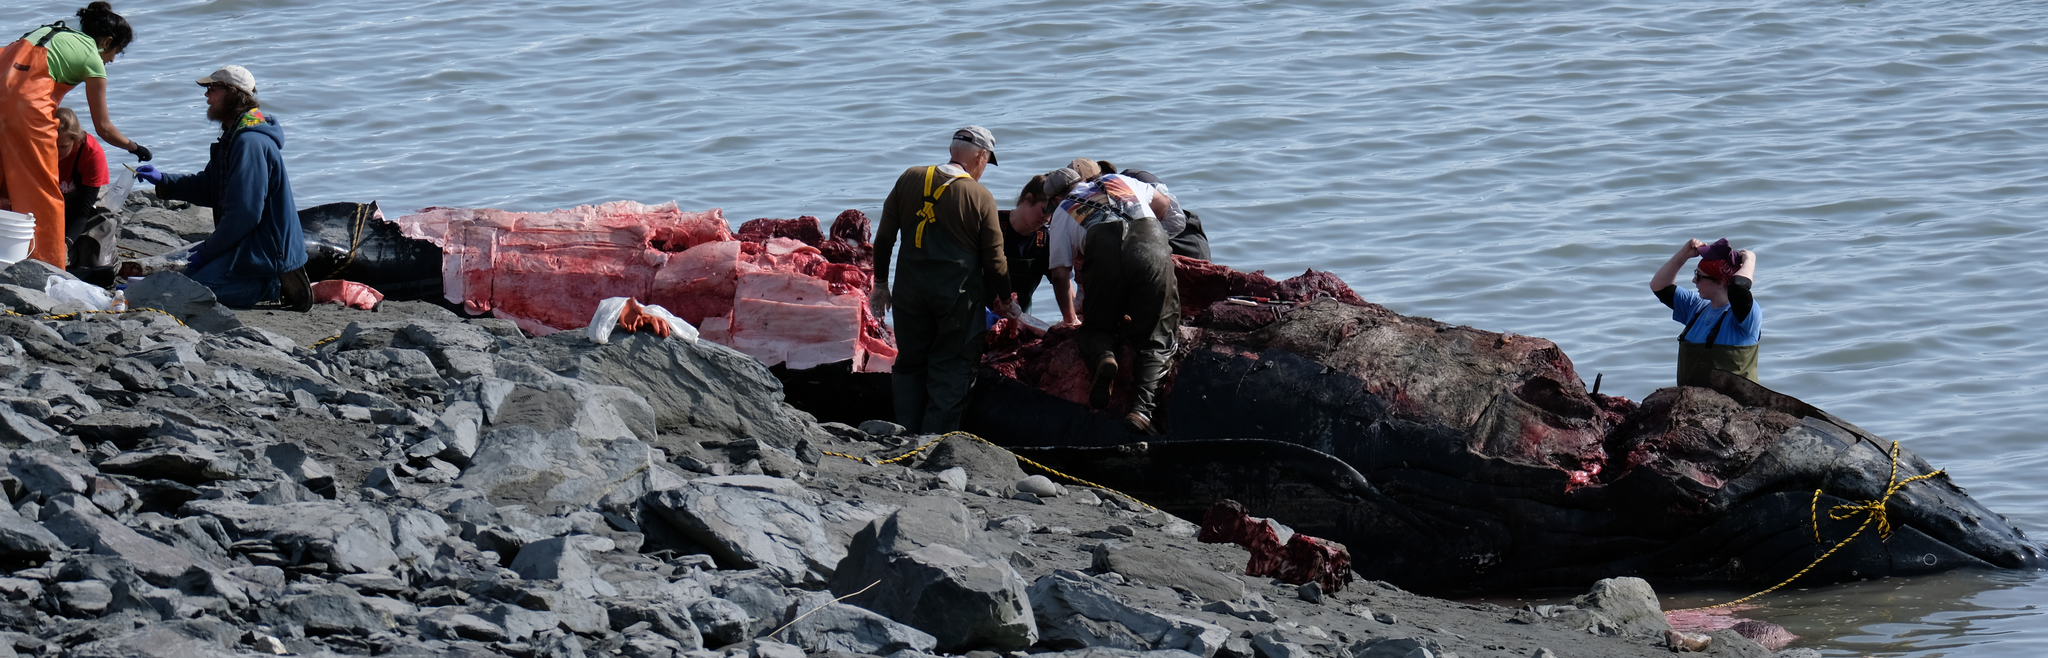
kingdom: Animalia
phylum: Chordata
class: Mammalia
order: Cetacea
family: Balaenopteridae
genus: Megaptera
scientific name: Megaptera novaeangliae
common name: Humpback whale
